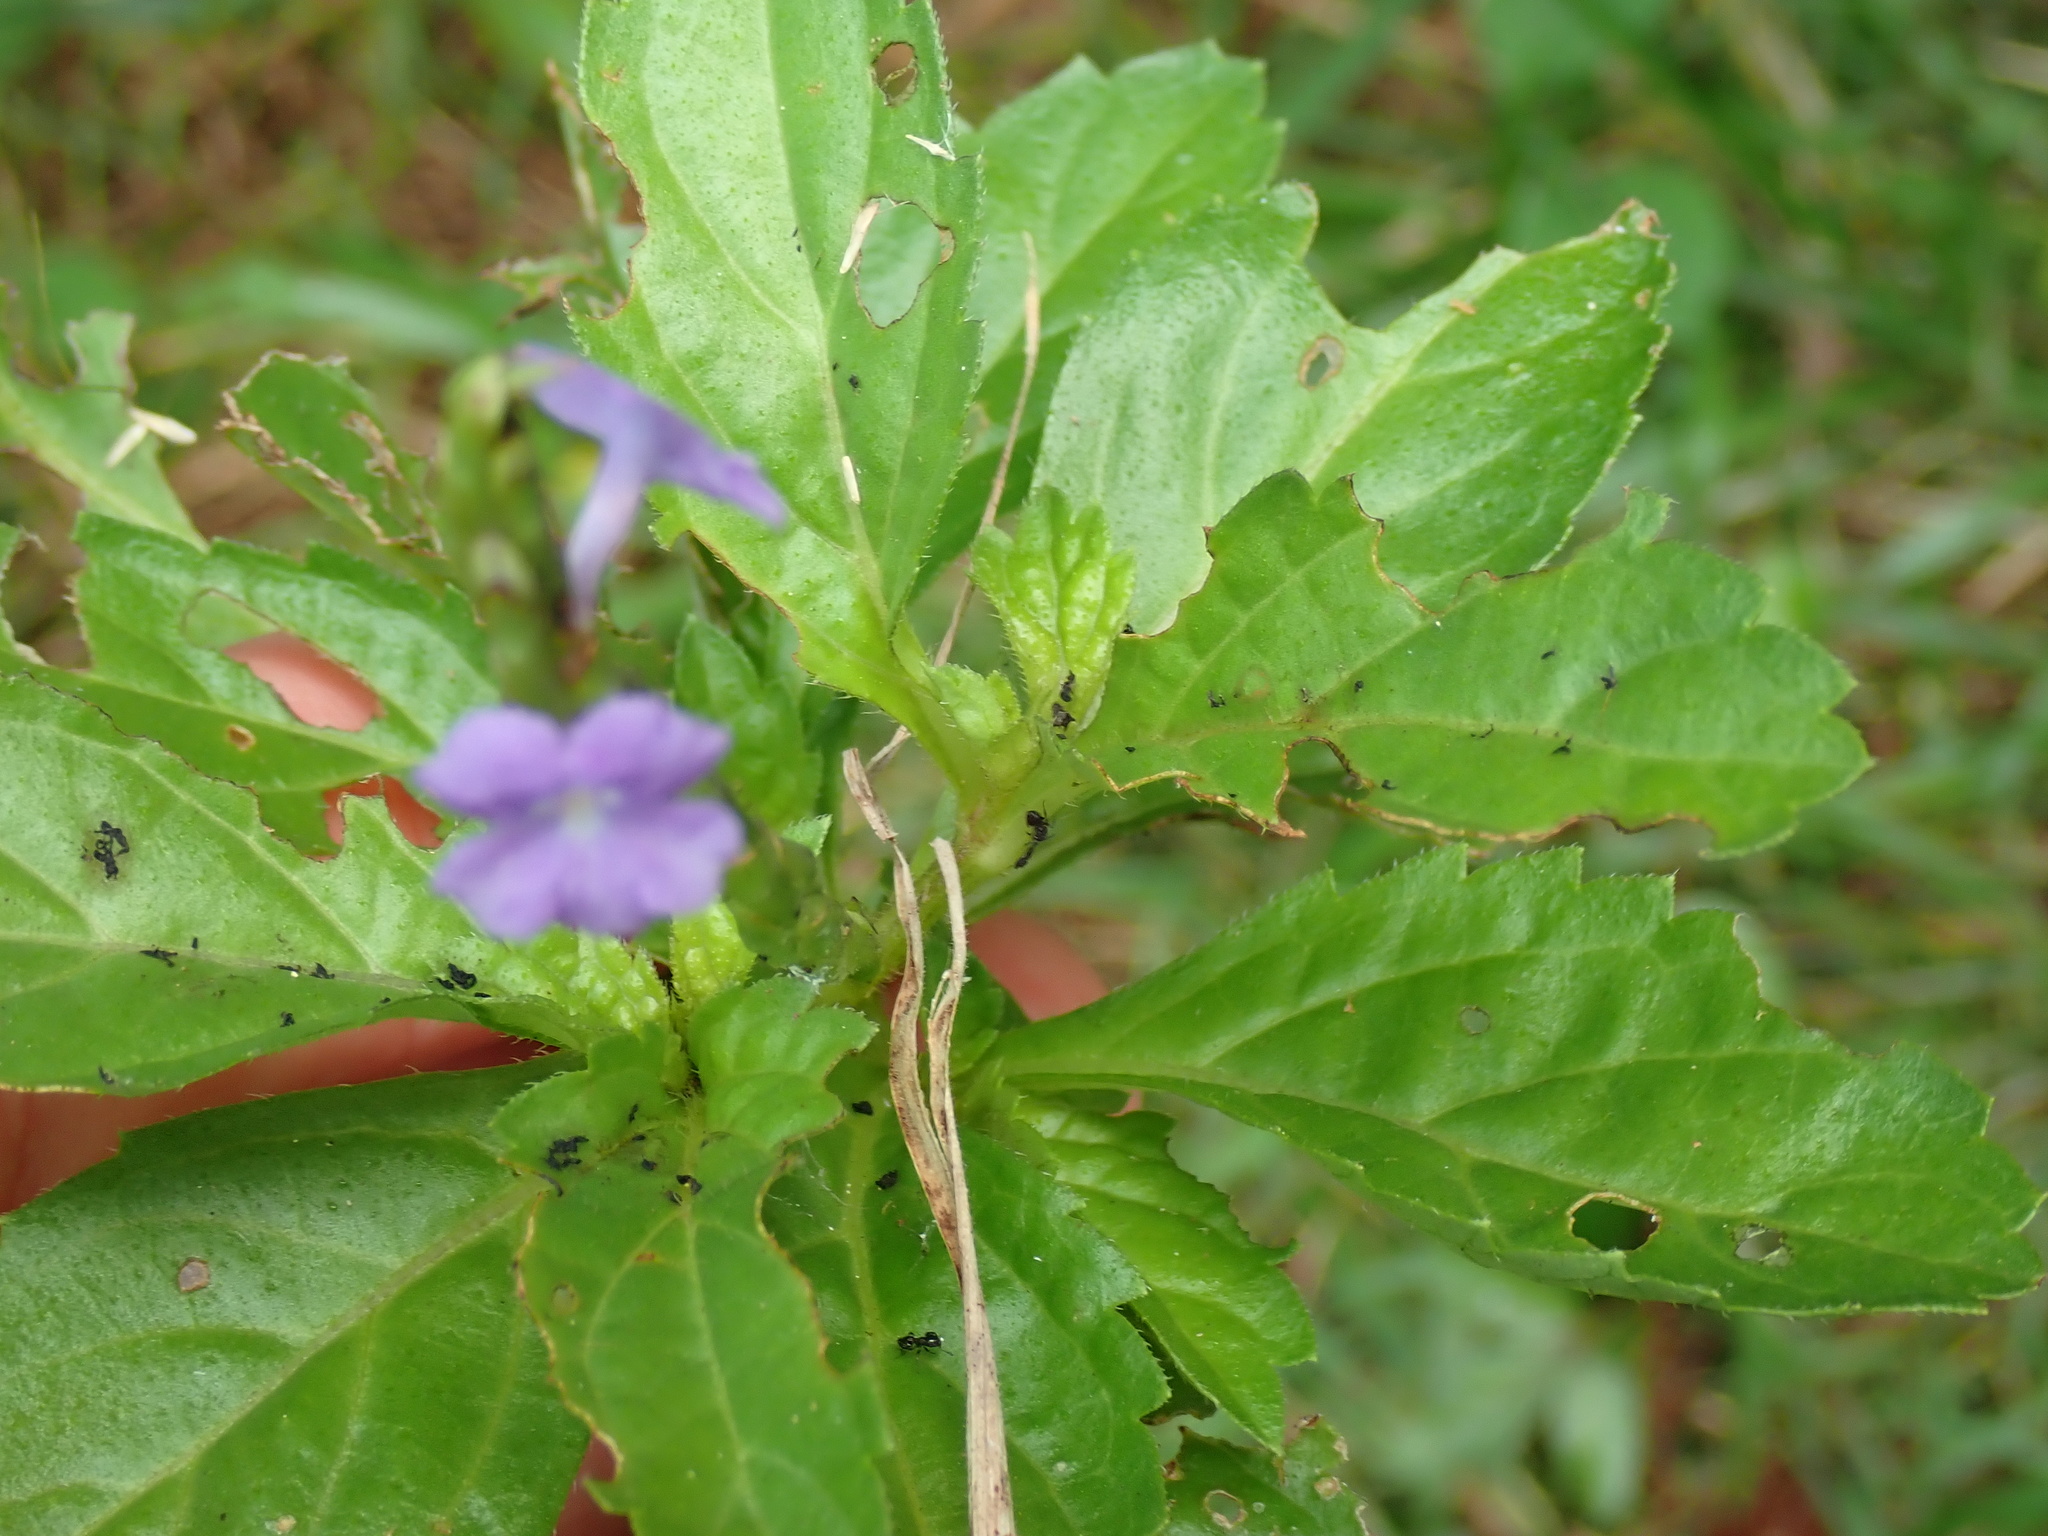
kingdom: Plantae
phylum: Tracheophyta
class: Magnoliopsida
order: Lamiales
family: Verbenaceae
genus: Stachytarpheta
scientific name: Stachytarpheta cayennensis
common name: Cayenne porterweed
